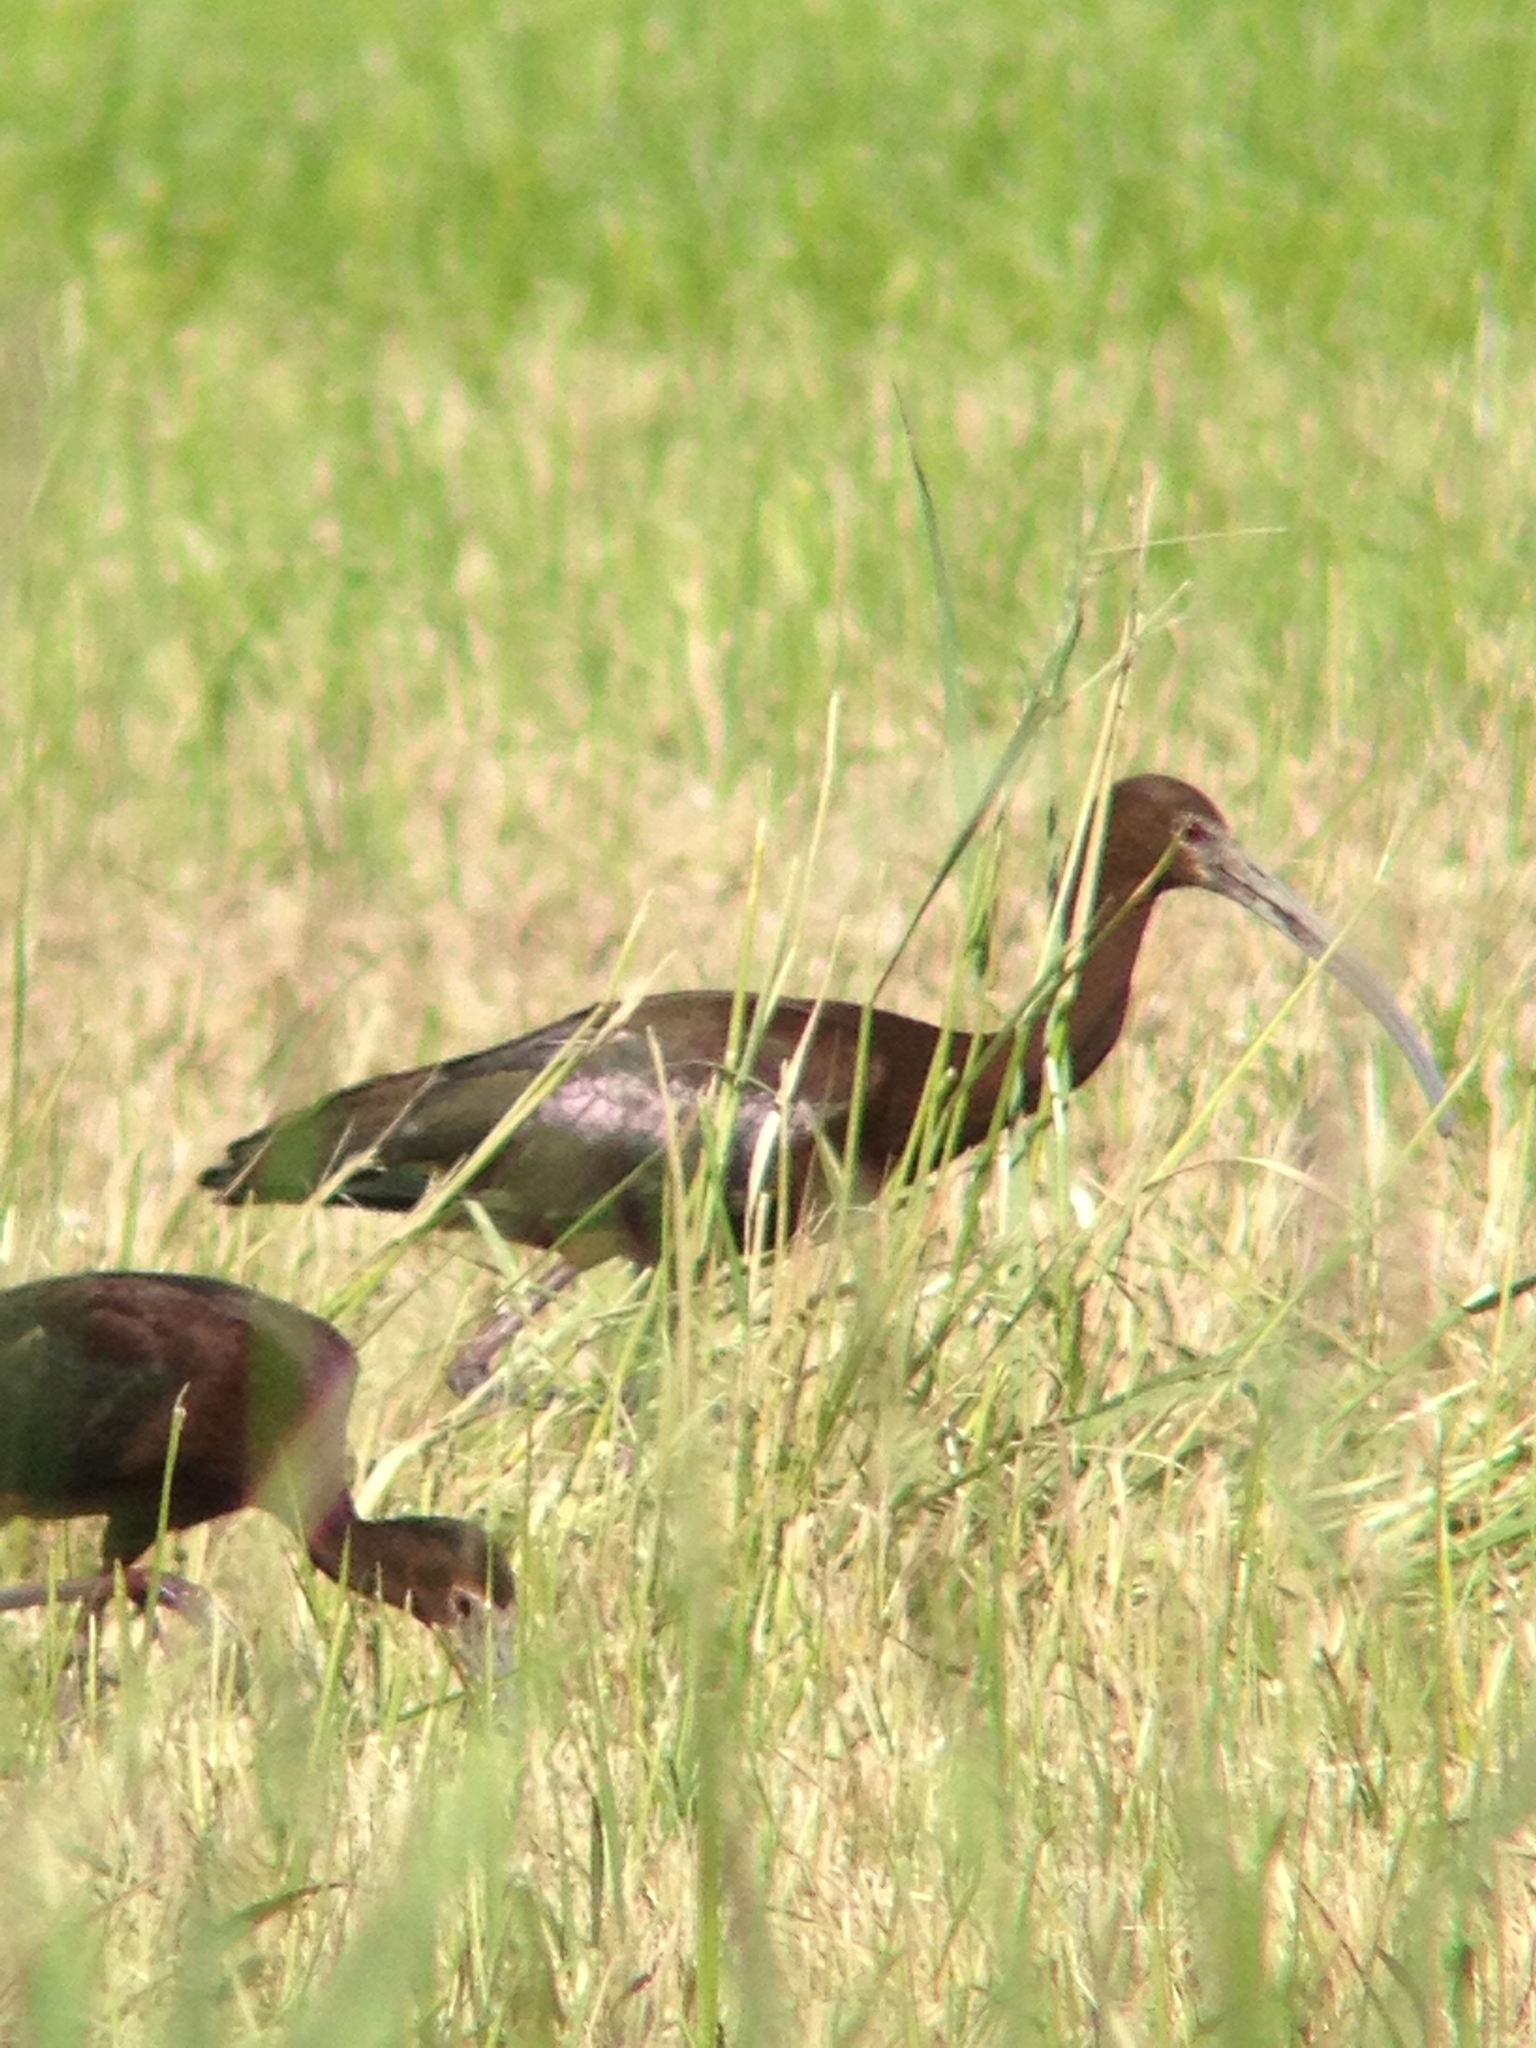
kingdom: Animalia
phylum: Chordata
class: Aves
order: Pelecaniformes
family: Threskiornithidae
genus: Plegadis
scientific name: Plegadis chihi
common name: White-faced ibis
